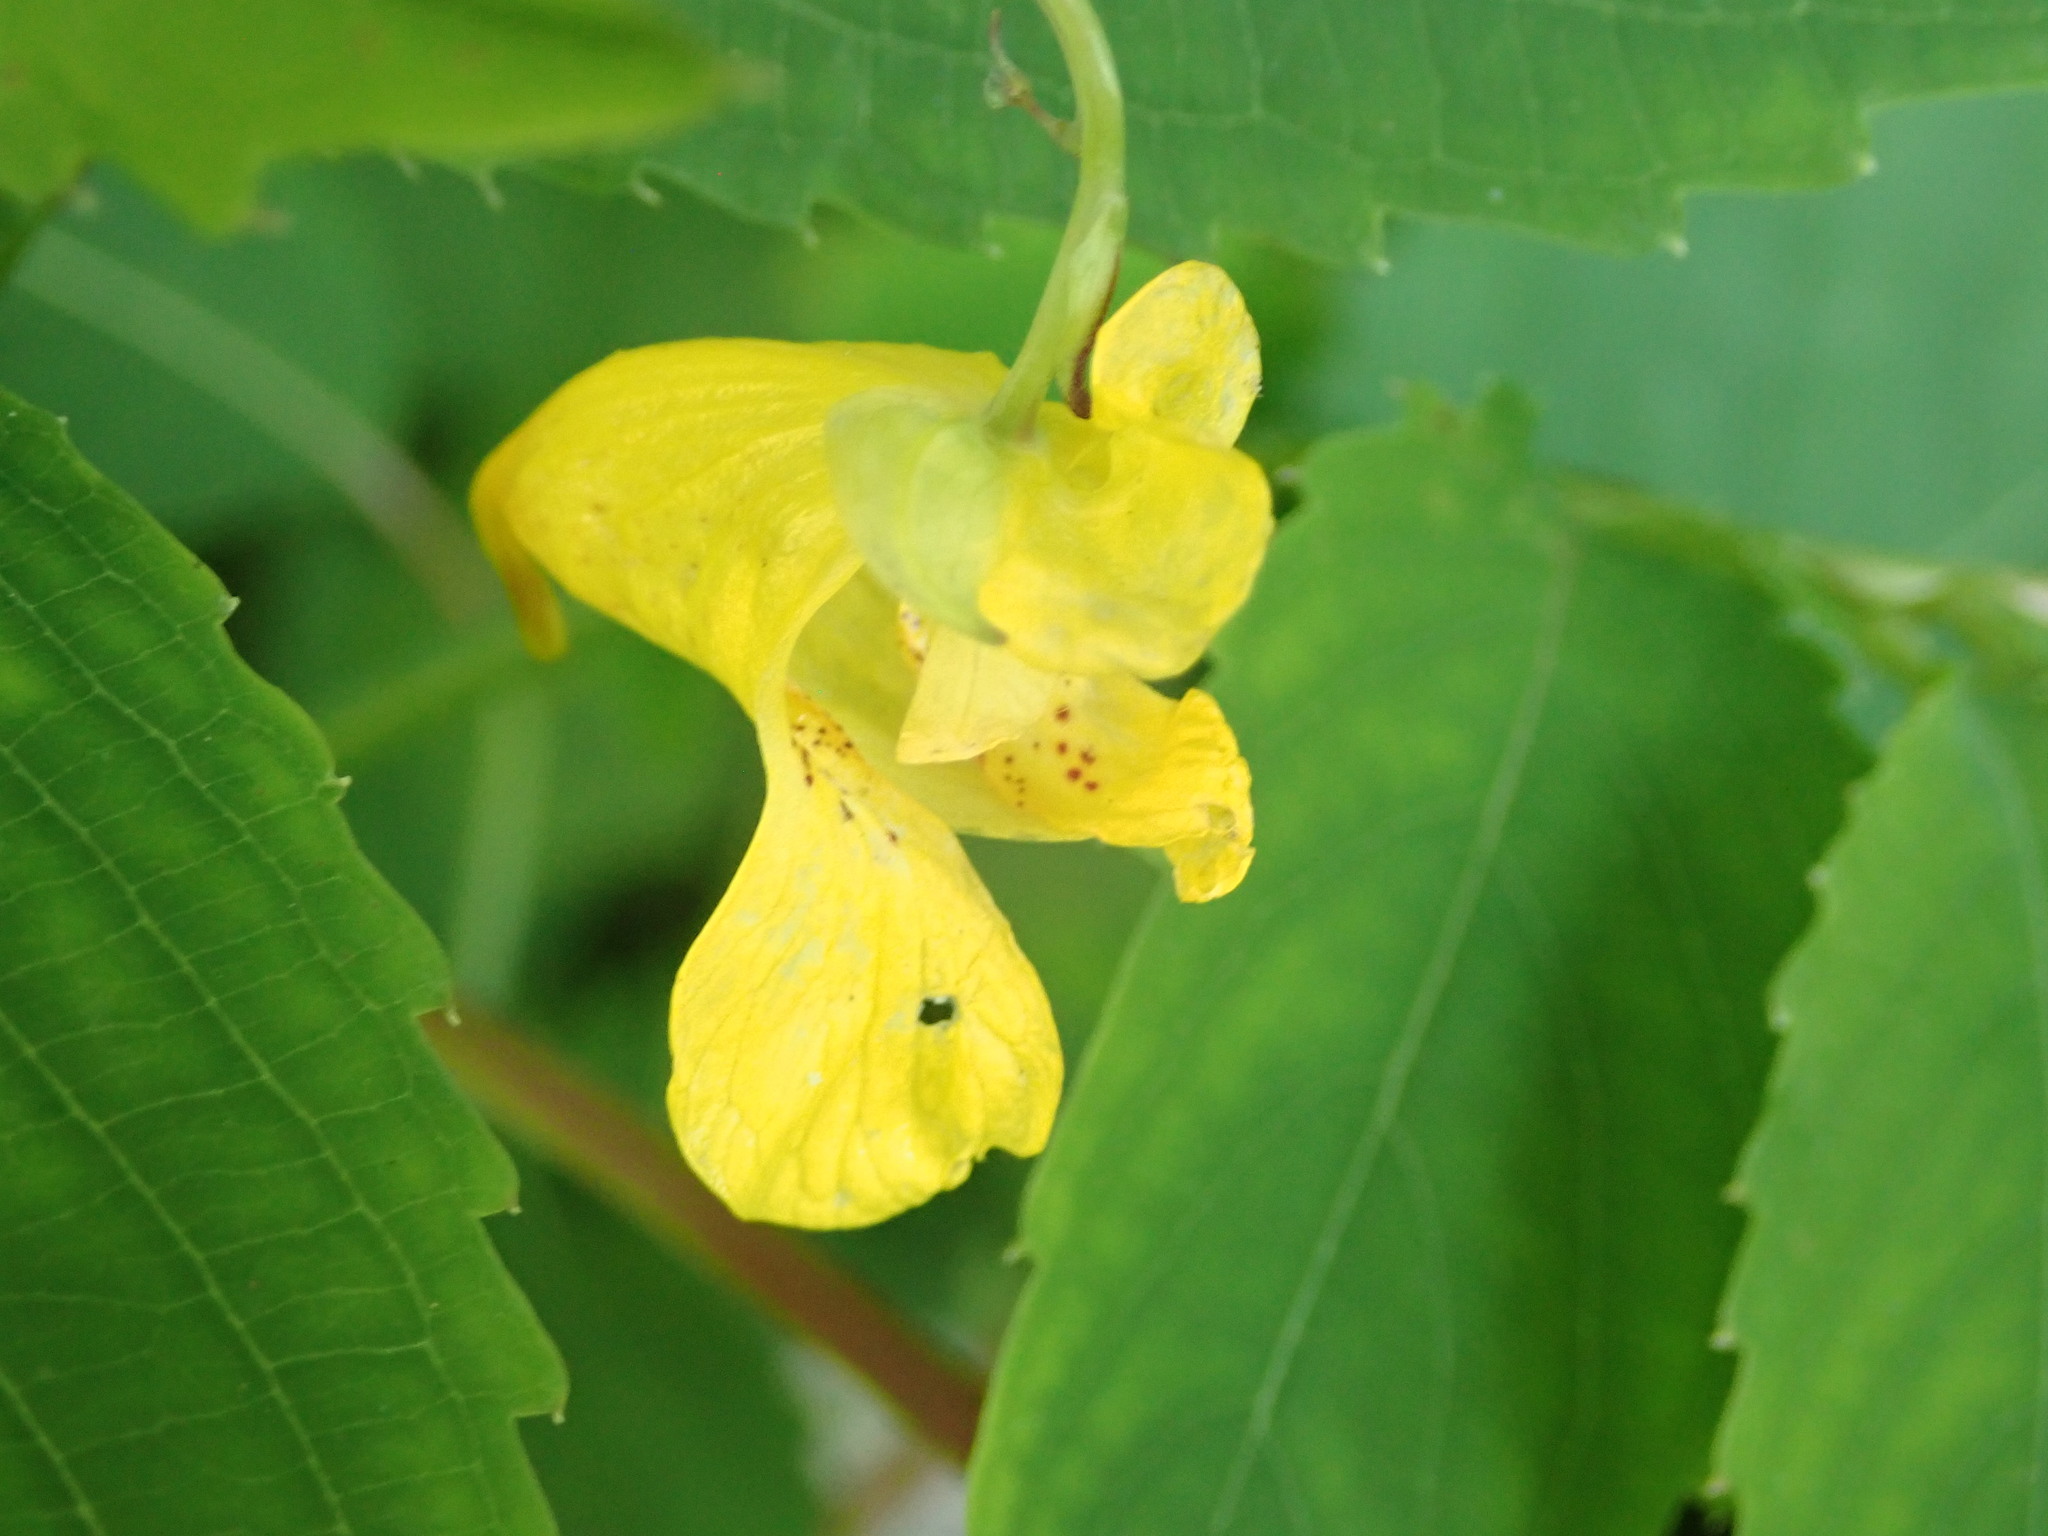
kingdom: Plantae
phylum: Tracheophyta
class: Magnoliopsida
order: Ericales
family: Balsaminaceae
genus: Impatiens
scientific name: Impatiens pallida
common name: Pale snapweed
